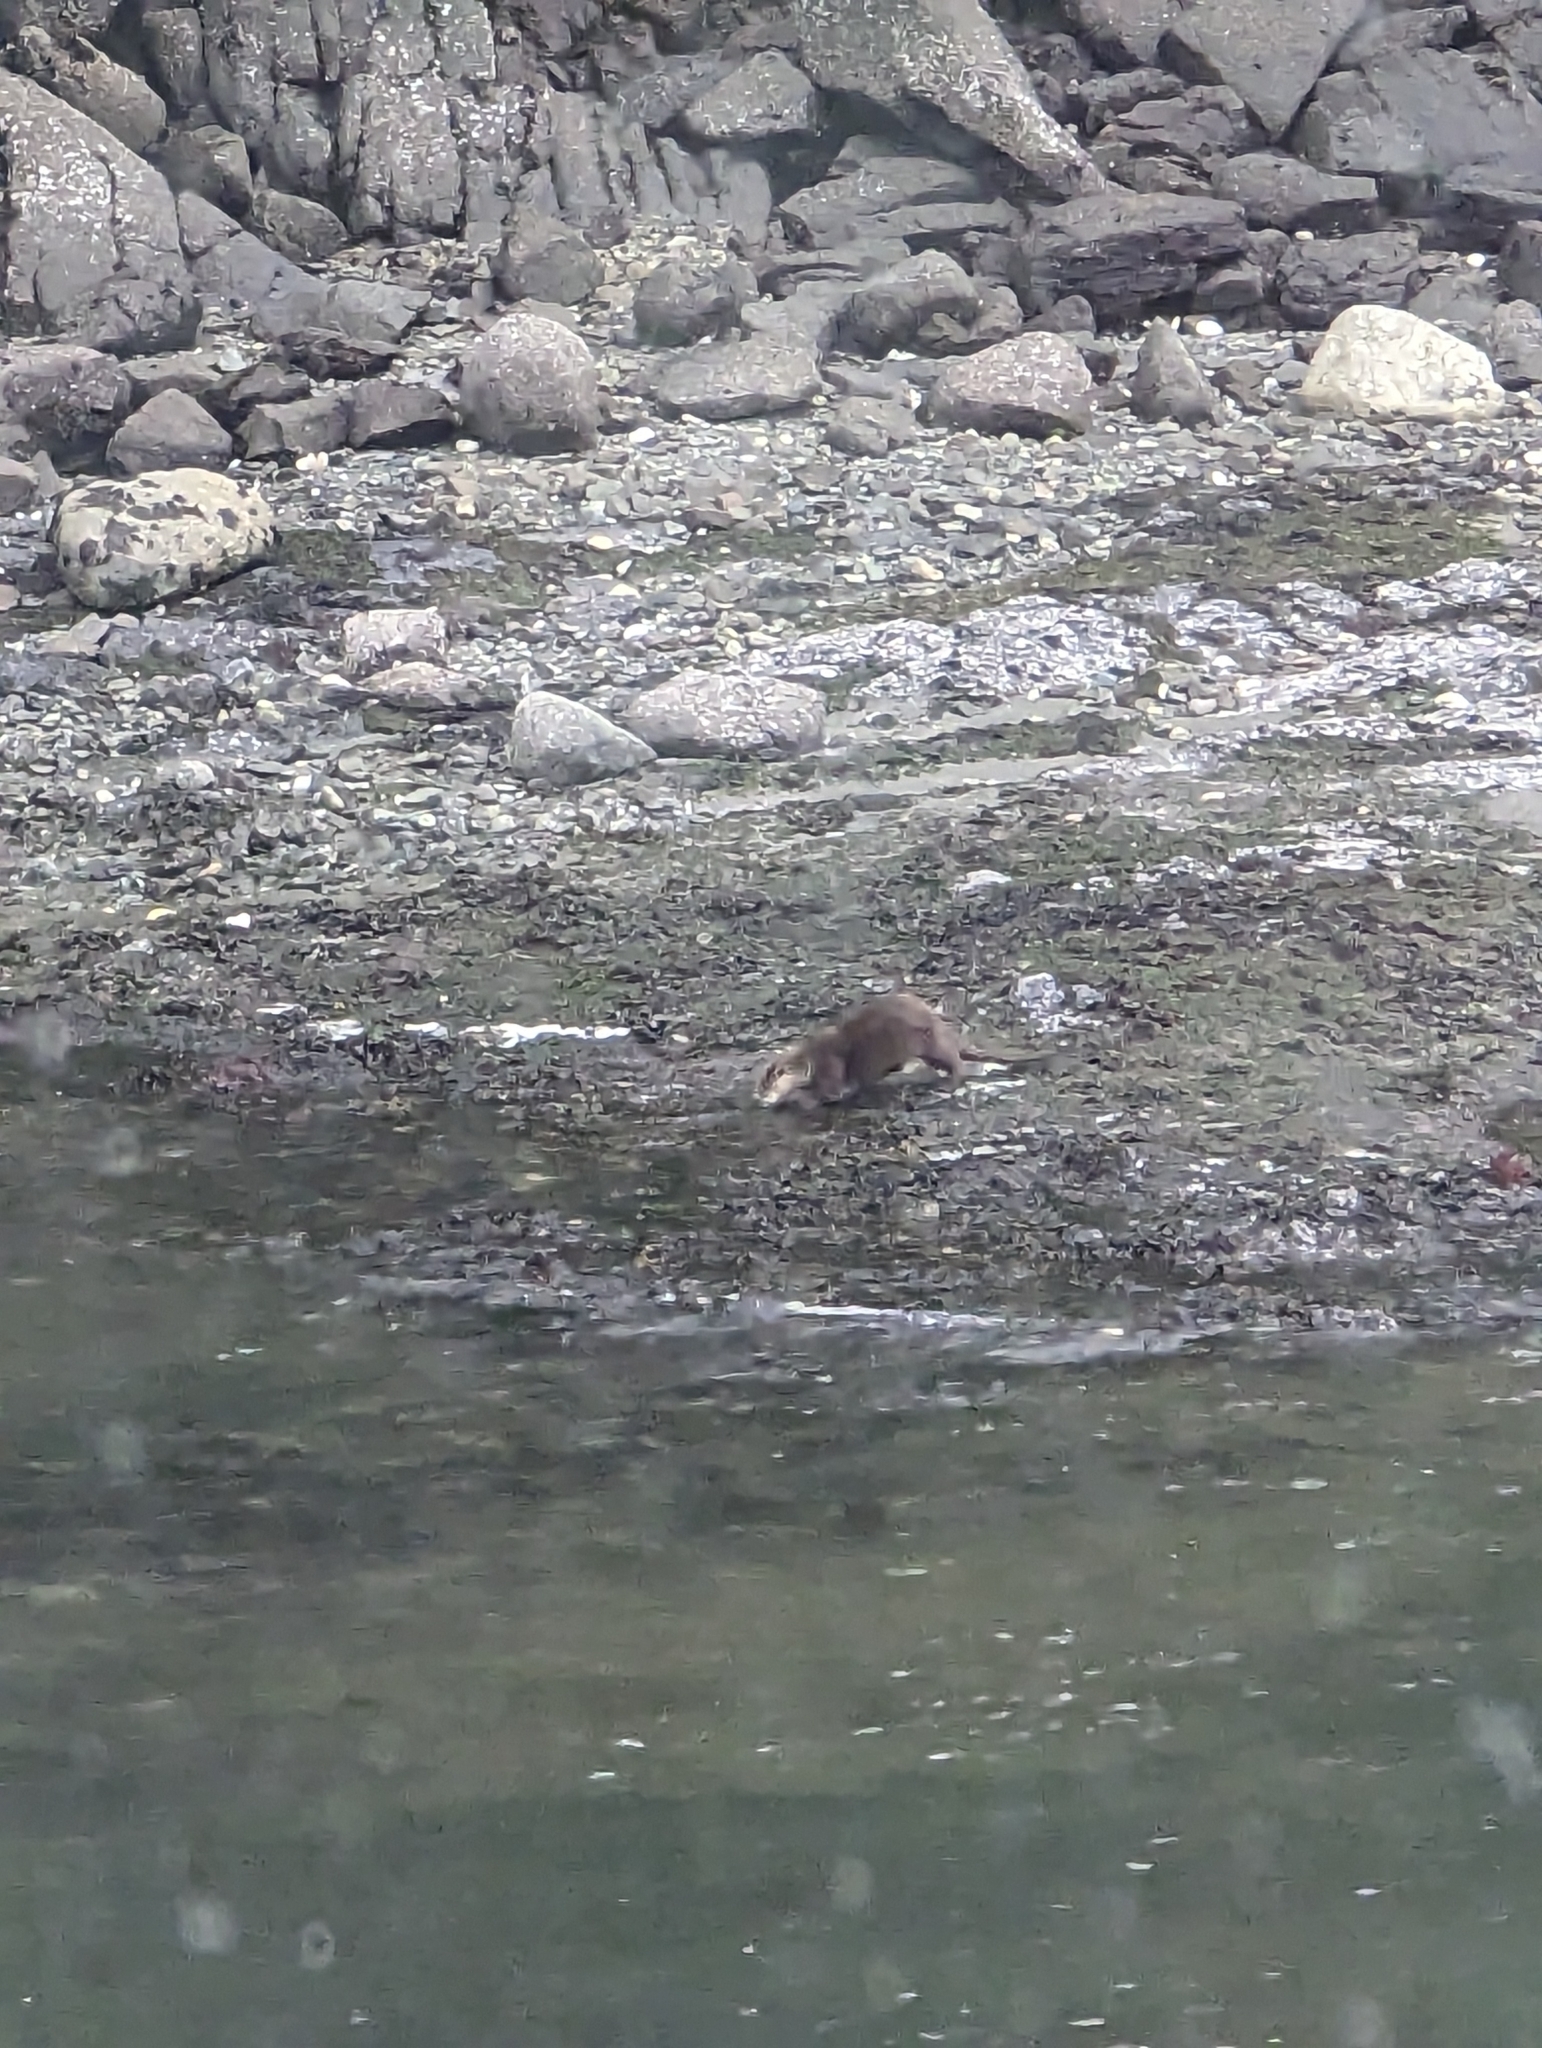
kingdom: Animalia
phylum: Chordata
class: Mammalia
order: Carnivora
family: Mustelidae
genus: Lontra
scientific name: Lontra canadensis
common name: North american river otter
